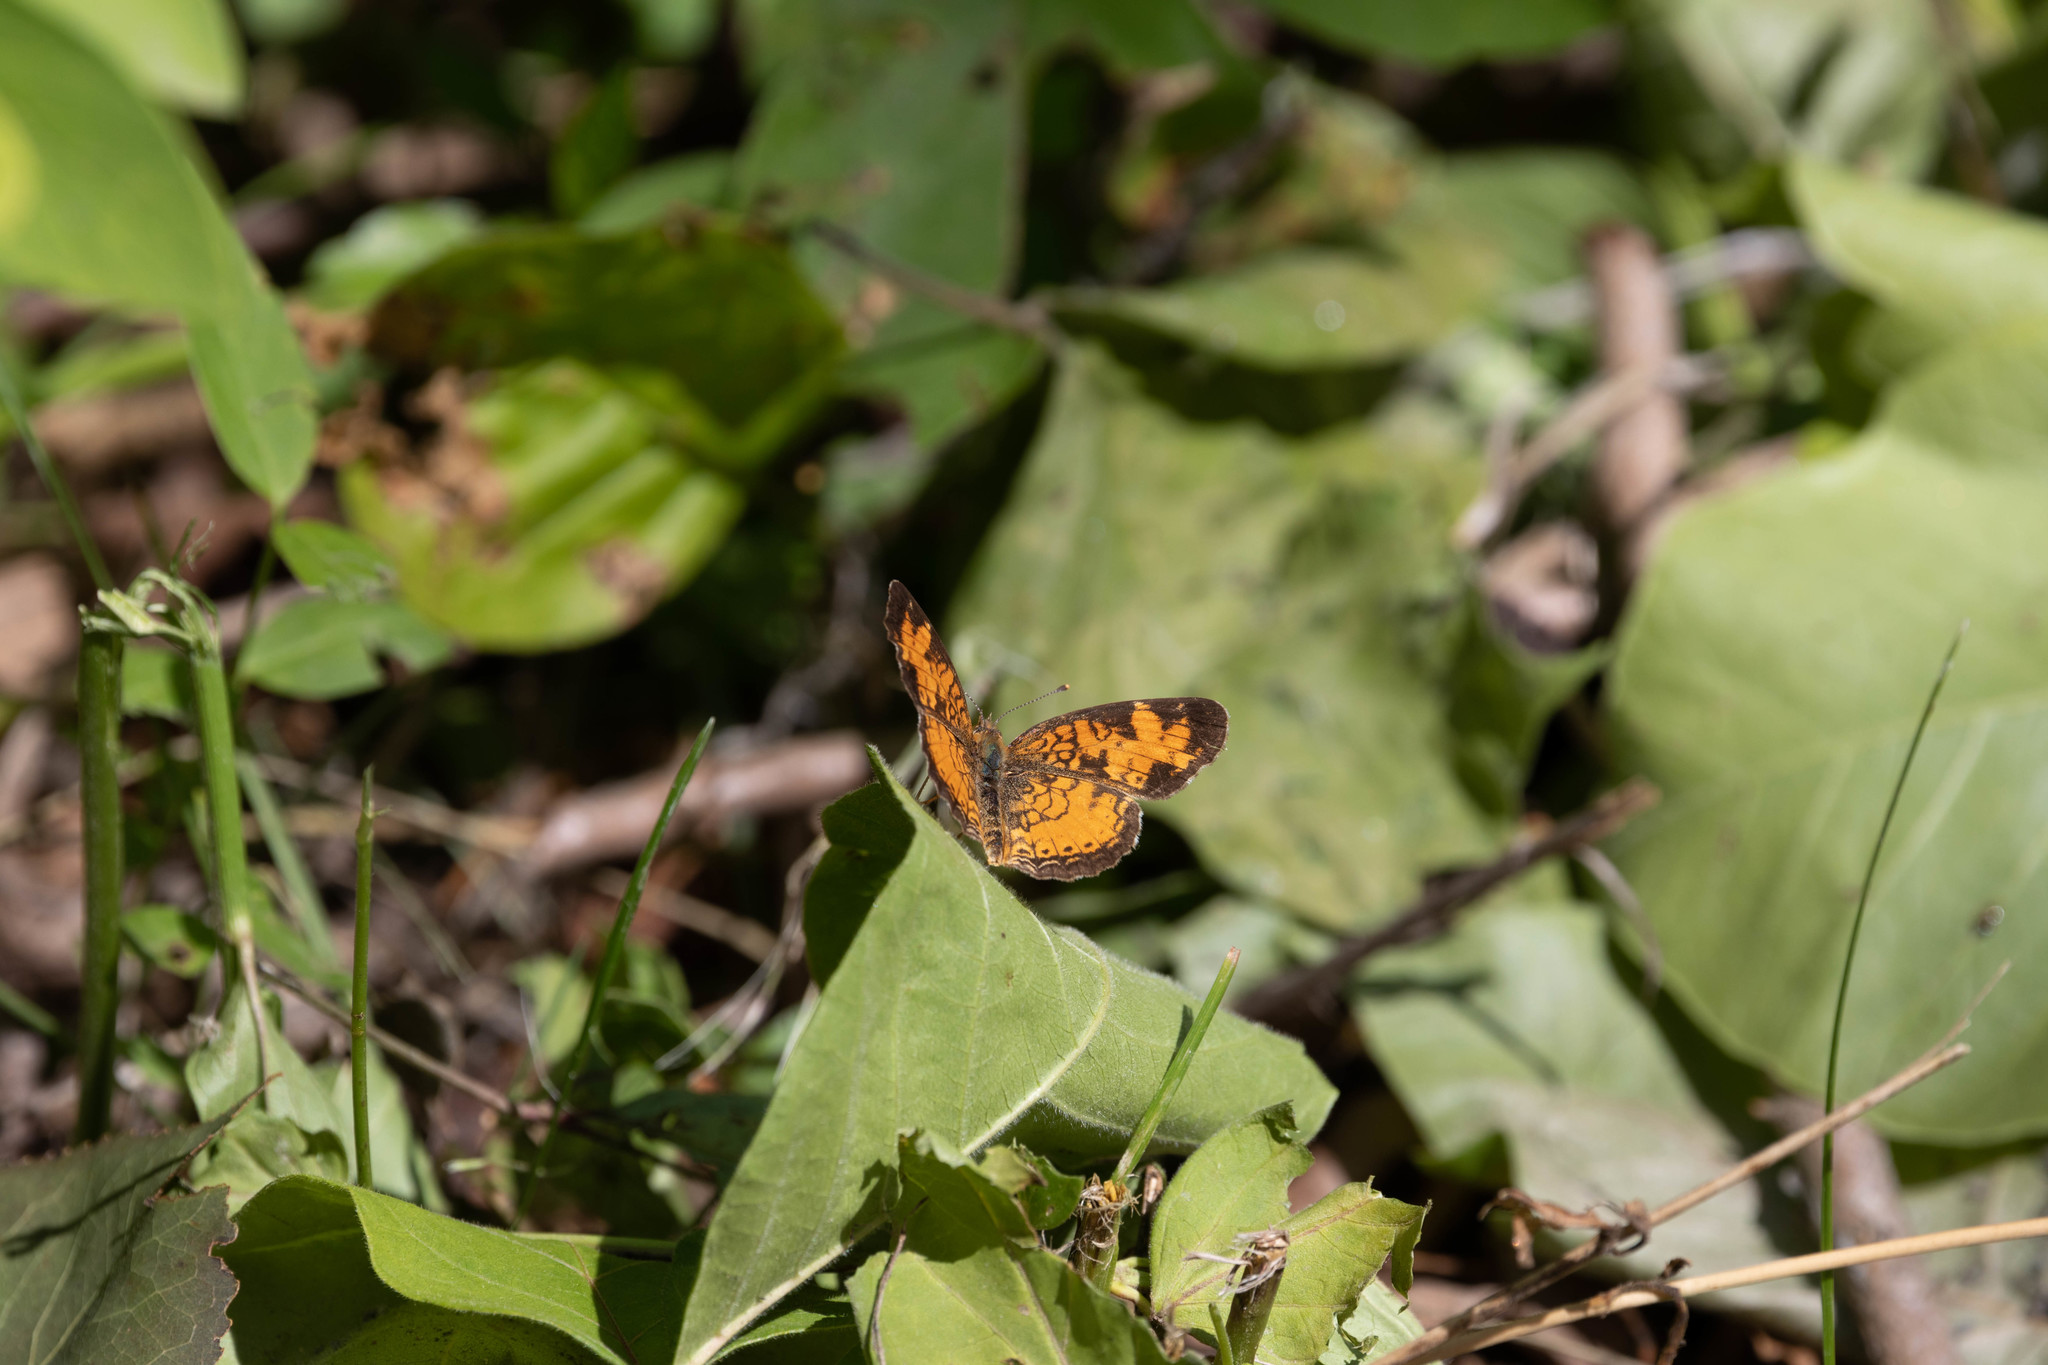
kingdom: Animalia
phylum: Arthropoda
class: Insecta
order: Lepidoptera
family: Nymphalidae
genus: Phyciodes
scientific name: Phyciodes tharos
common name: Pearl crescent
